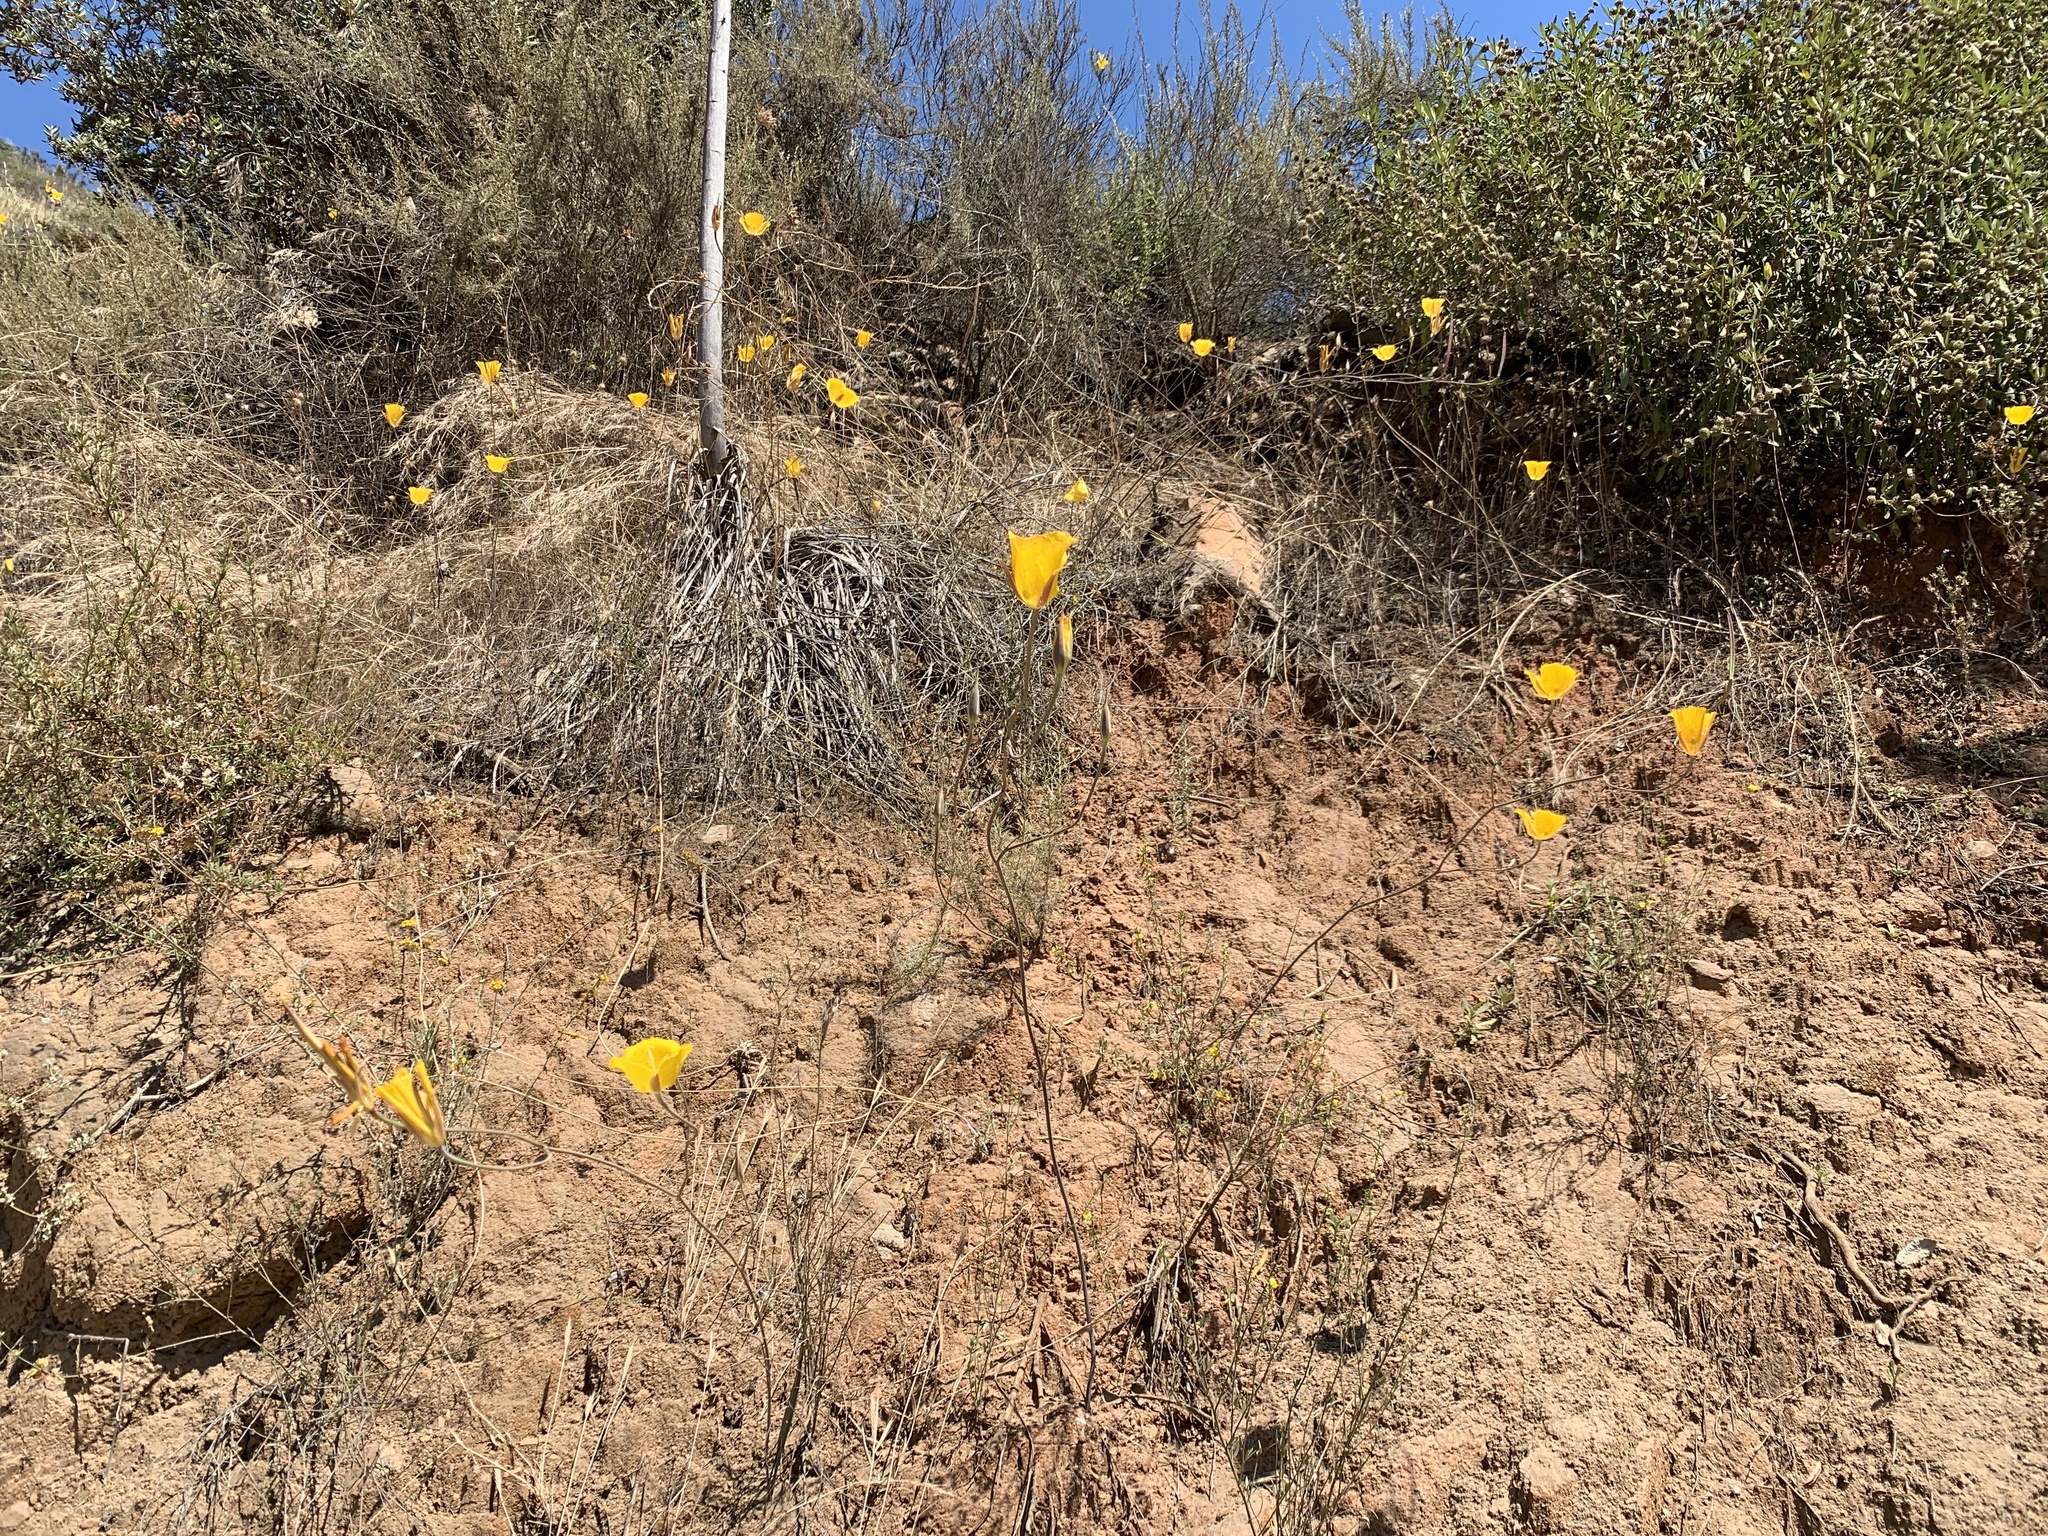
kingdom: Plantae
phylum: Tracheophyta
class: Liliopsida
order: Liliales
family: Liliaceae
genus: Calochortus
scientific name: Calochortus weedii
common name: Weed's mariposa-lily
